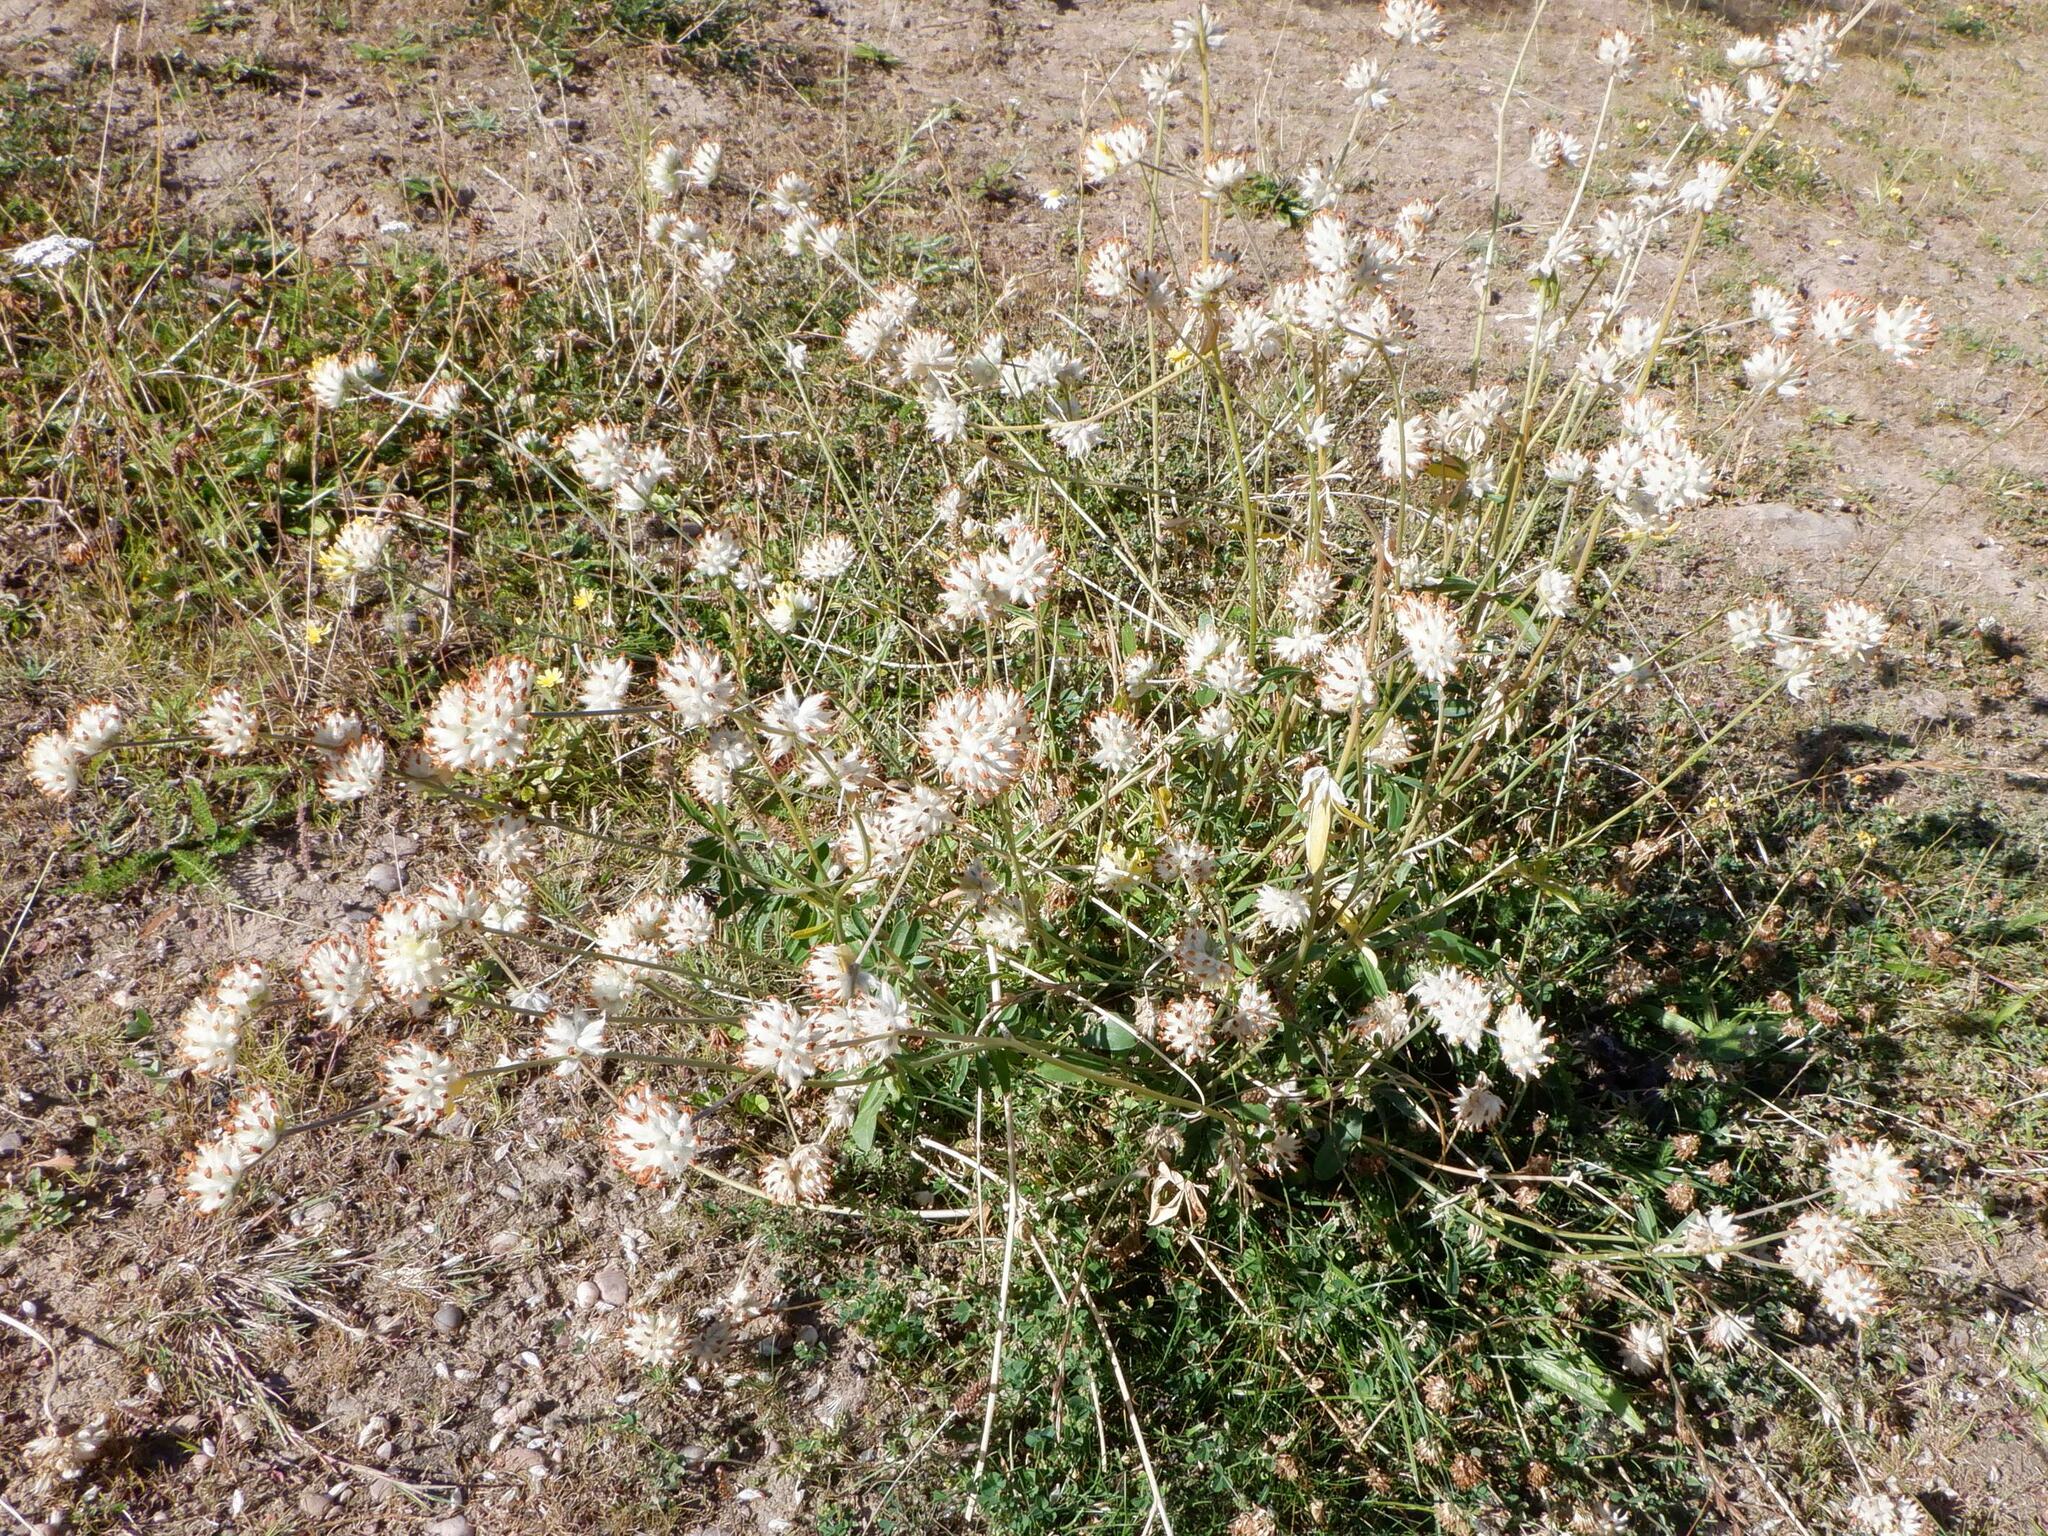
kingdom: Plantae
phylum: Tracheophyta
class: Magnoliopsida
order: Fabales
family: Fabaceae
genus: Anthyllis
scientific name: Anthyllis vulneraria
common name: Kidney vetch
